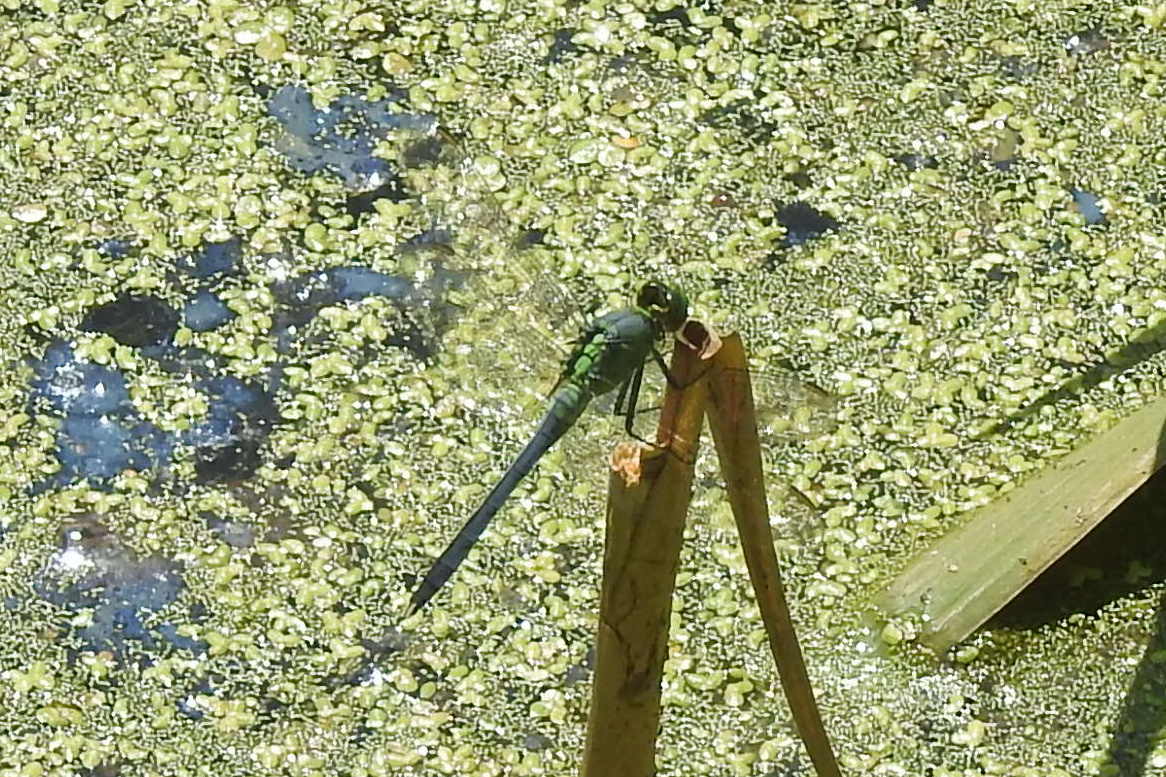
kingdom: Animalia
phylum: Arthropoda
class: Insecta
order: Odonata
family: Libellulidae
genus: Erythemis
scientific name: Erythemis simplicicollis
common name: Eastern pondhawk
